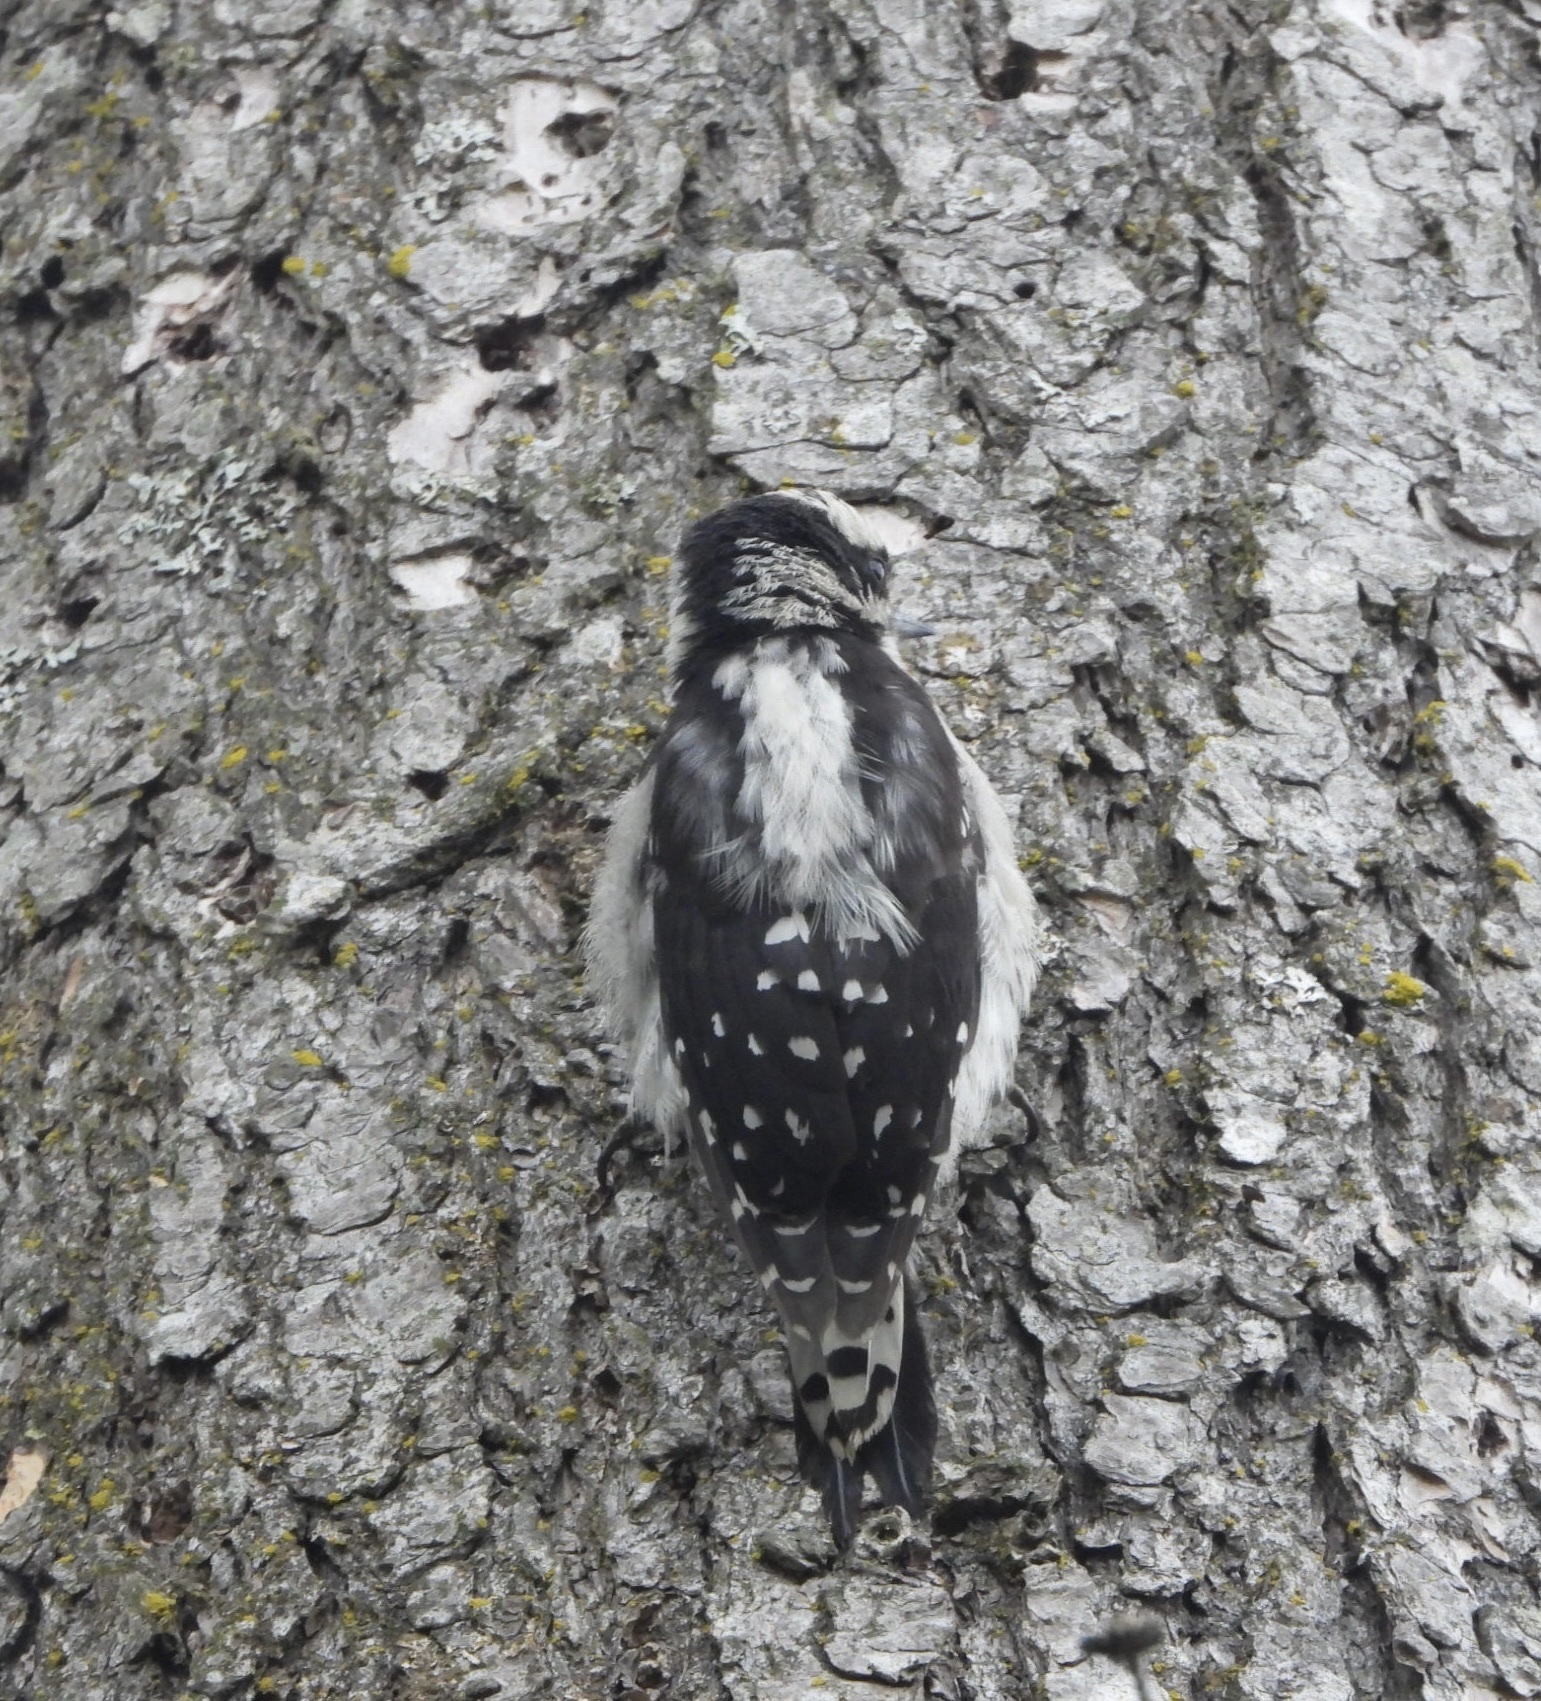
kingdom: Animalia
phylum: Chordata
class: Aves
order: Piciformes
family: Picidae
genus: Dryobates
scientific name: Dryobates pubescens
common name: Downy woodpecker
